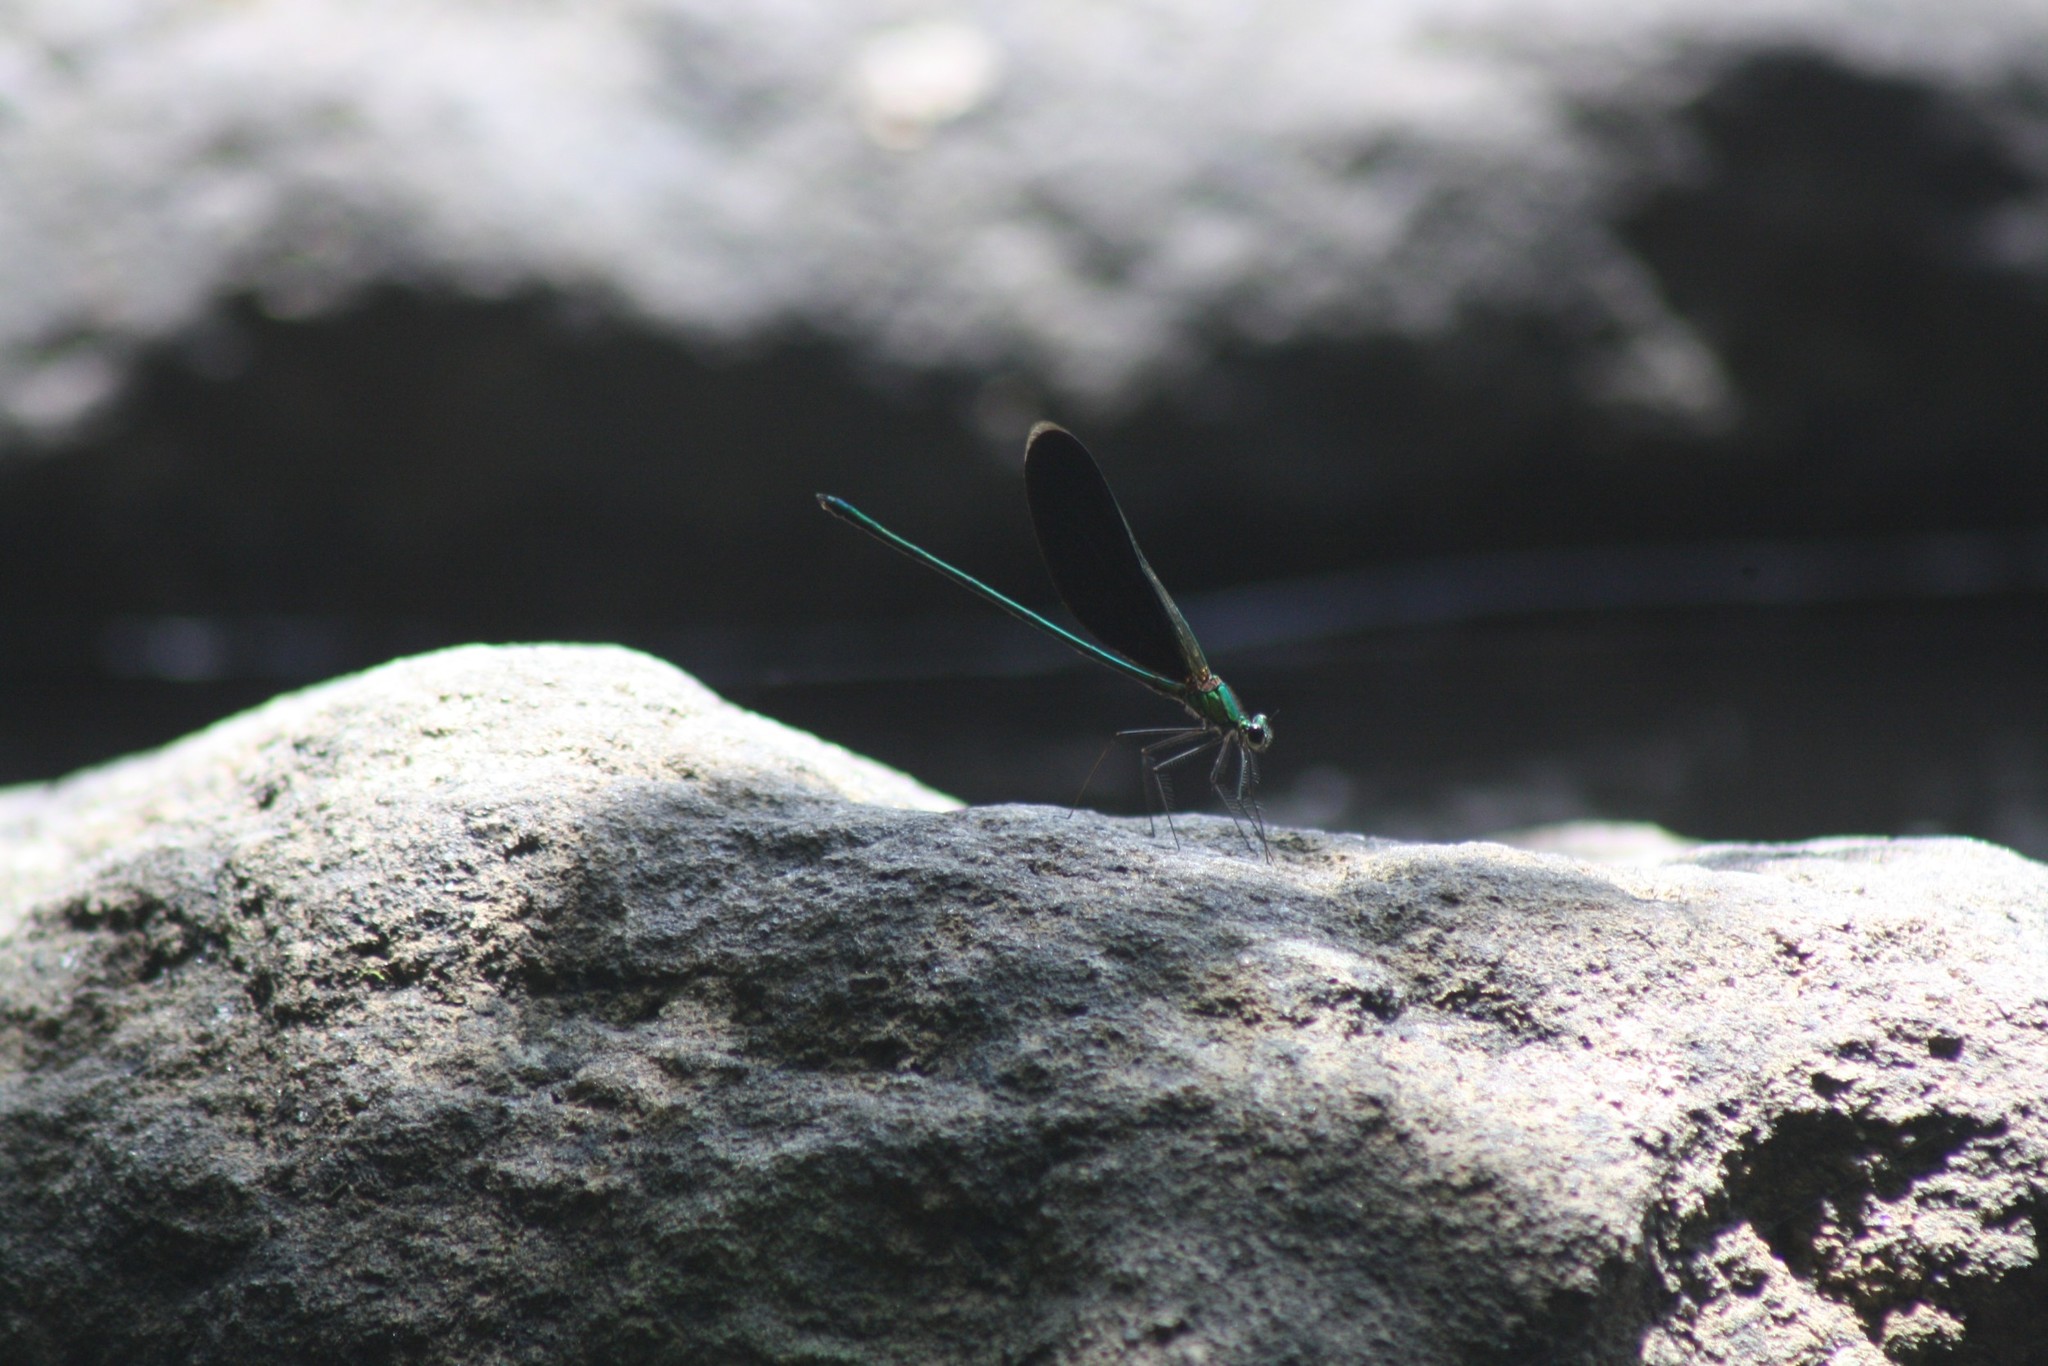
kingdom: Animalia
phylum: Arthropoda
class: Insecta
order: Odonata
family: Calopterygidae
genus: Neurobasis
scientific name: Neurobasis chinensis
